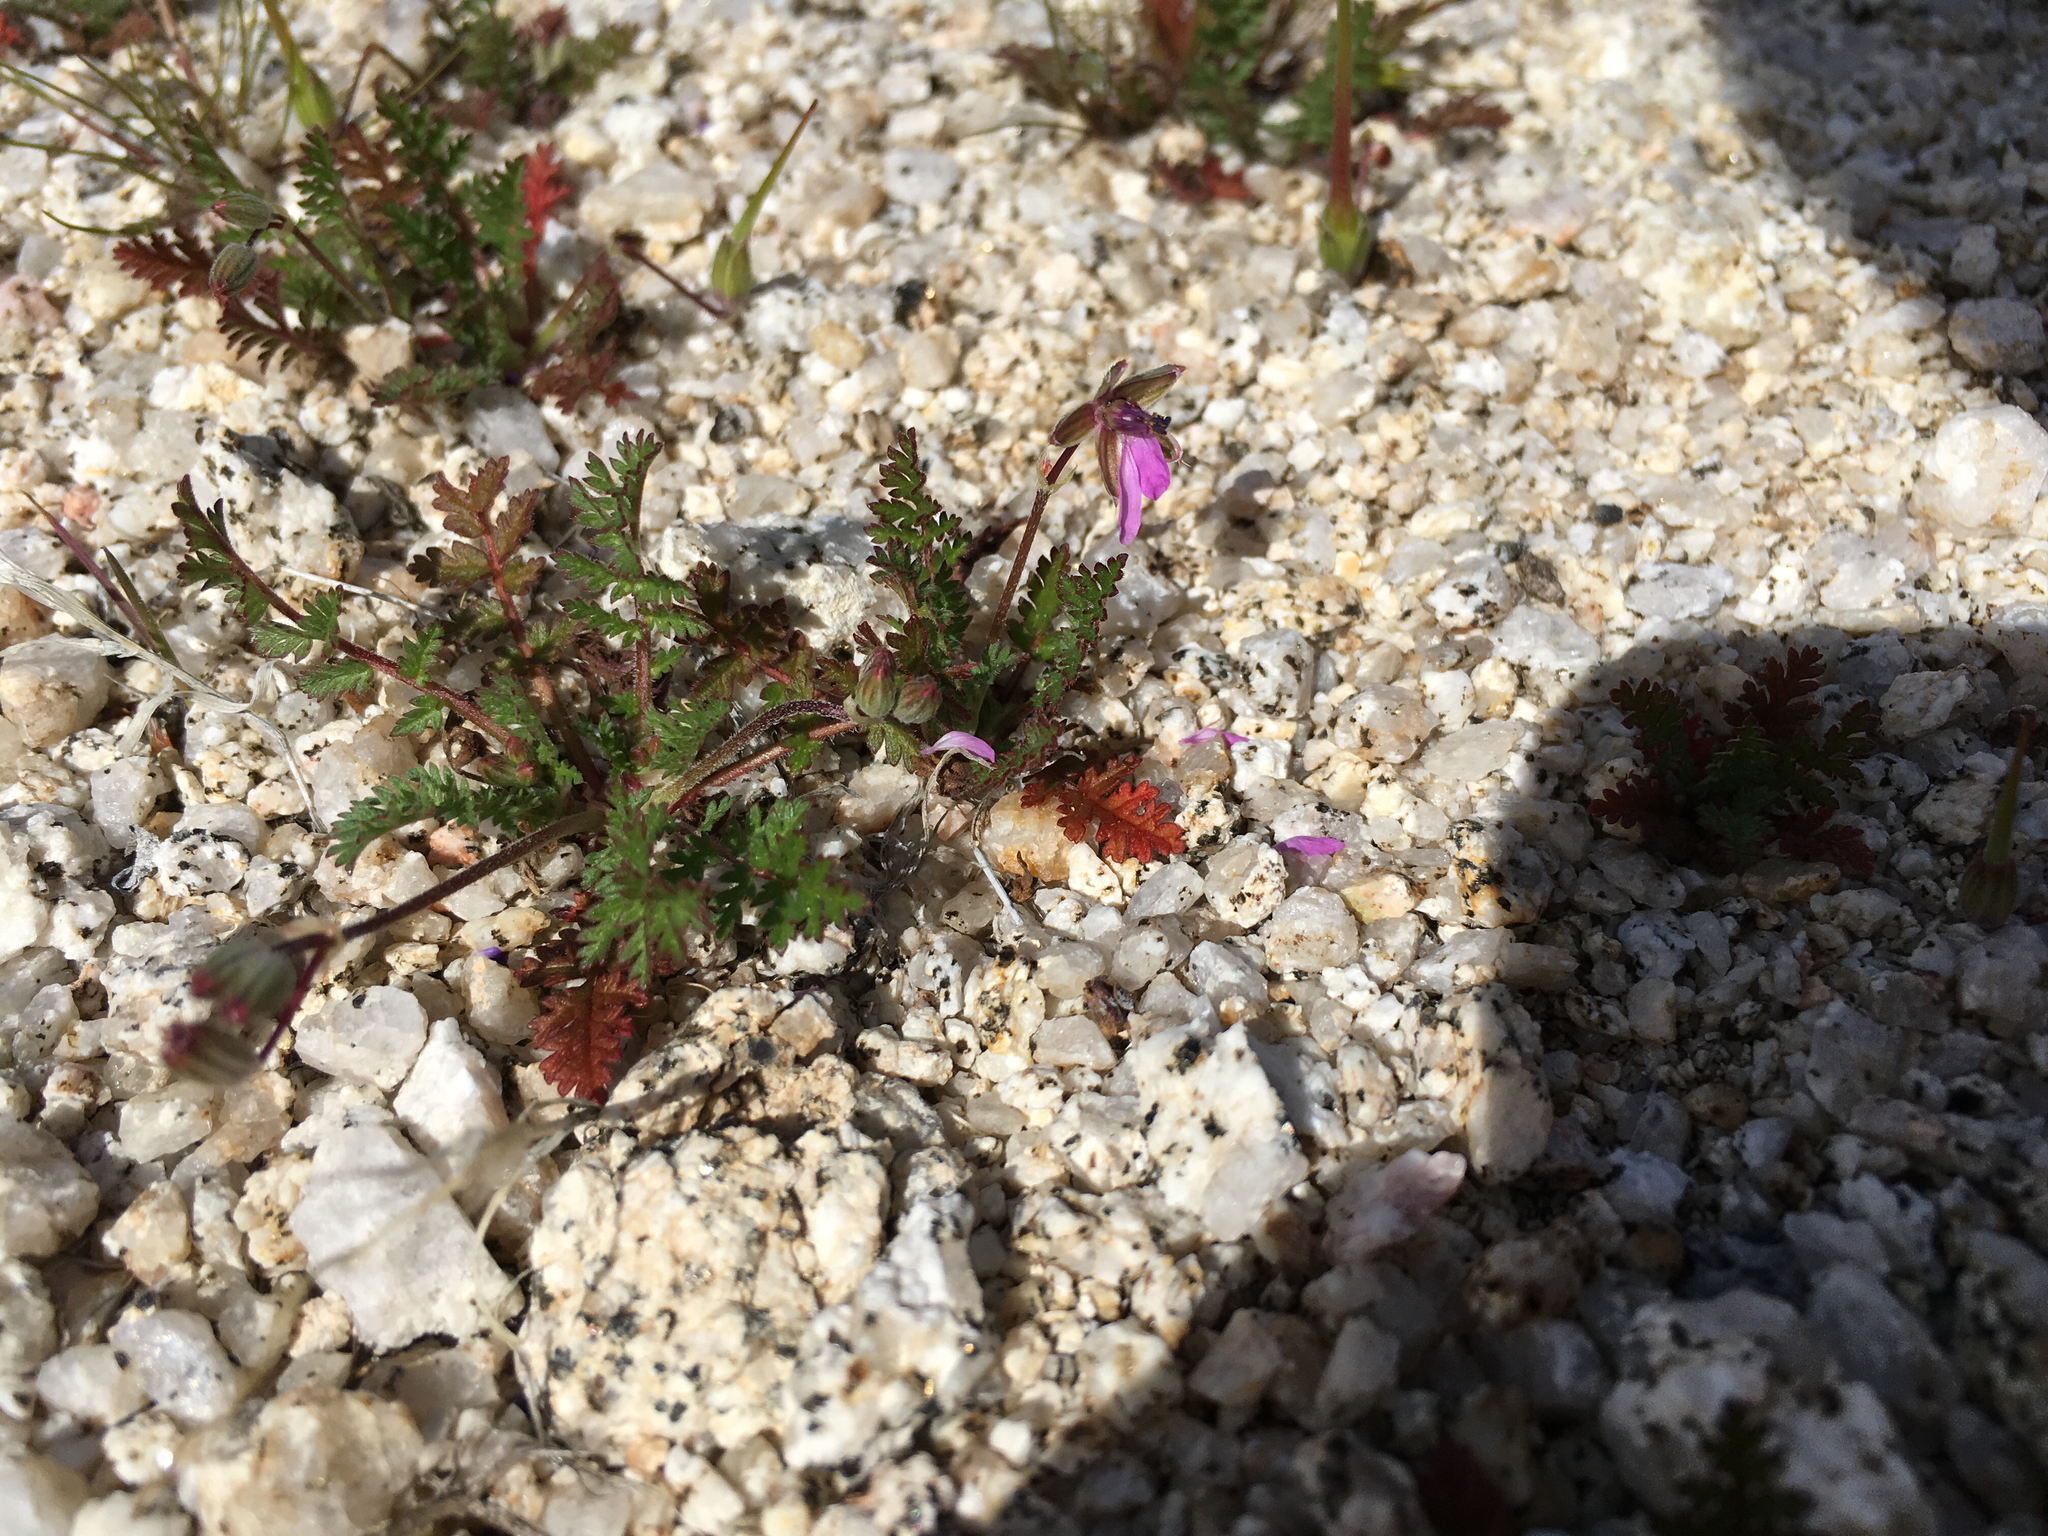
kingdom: Plantae
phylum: Tracheophyta
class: Magnoliopsida
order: Geraniales
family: Geraniaceae
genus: Erodium
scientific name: Erodium cicutarium
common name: Common stork's-bill
